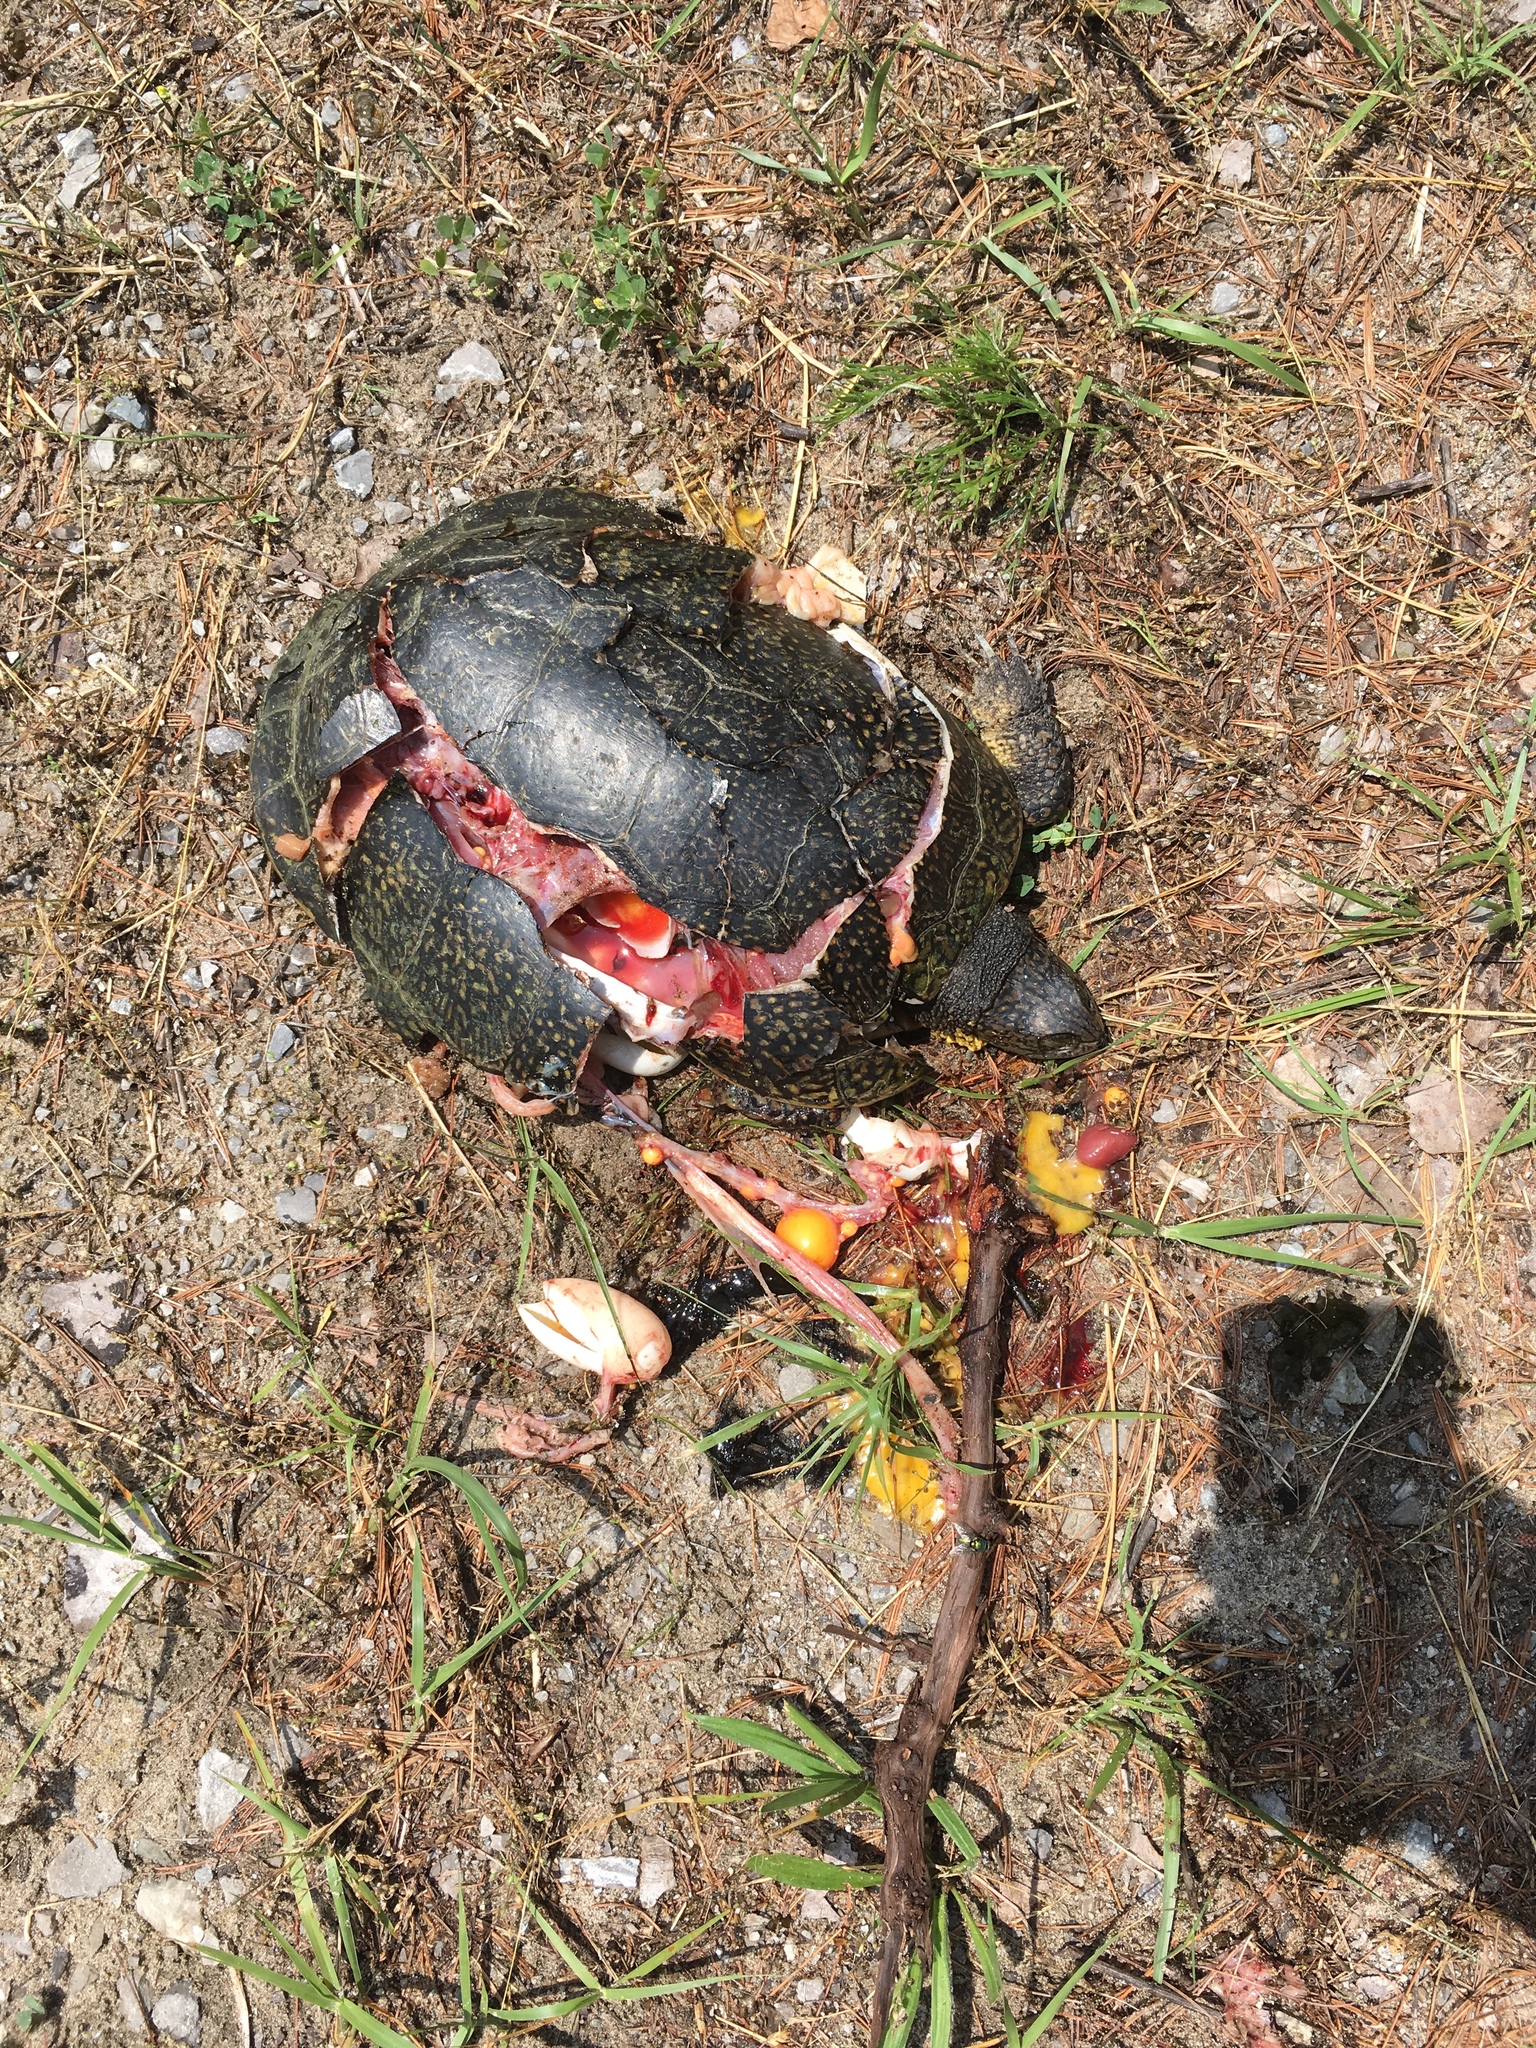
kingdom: Animalia
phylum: Chordata
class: Testudines
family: Emydidae
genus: Emys
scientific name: Emys blandingii
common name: Blanding's turtle
